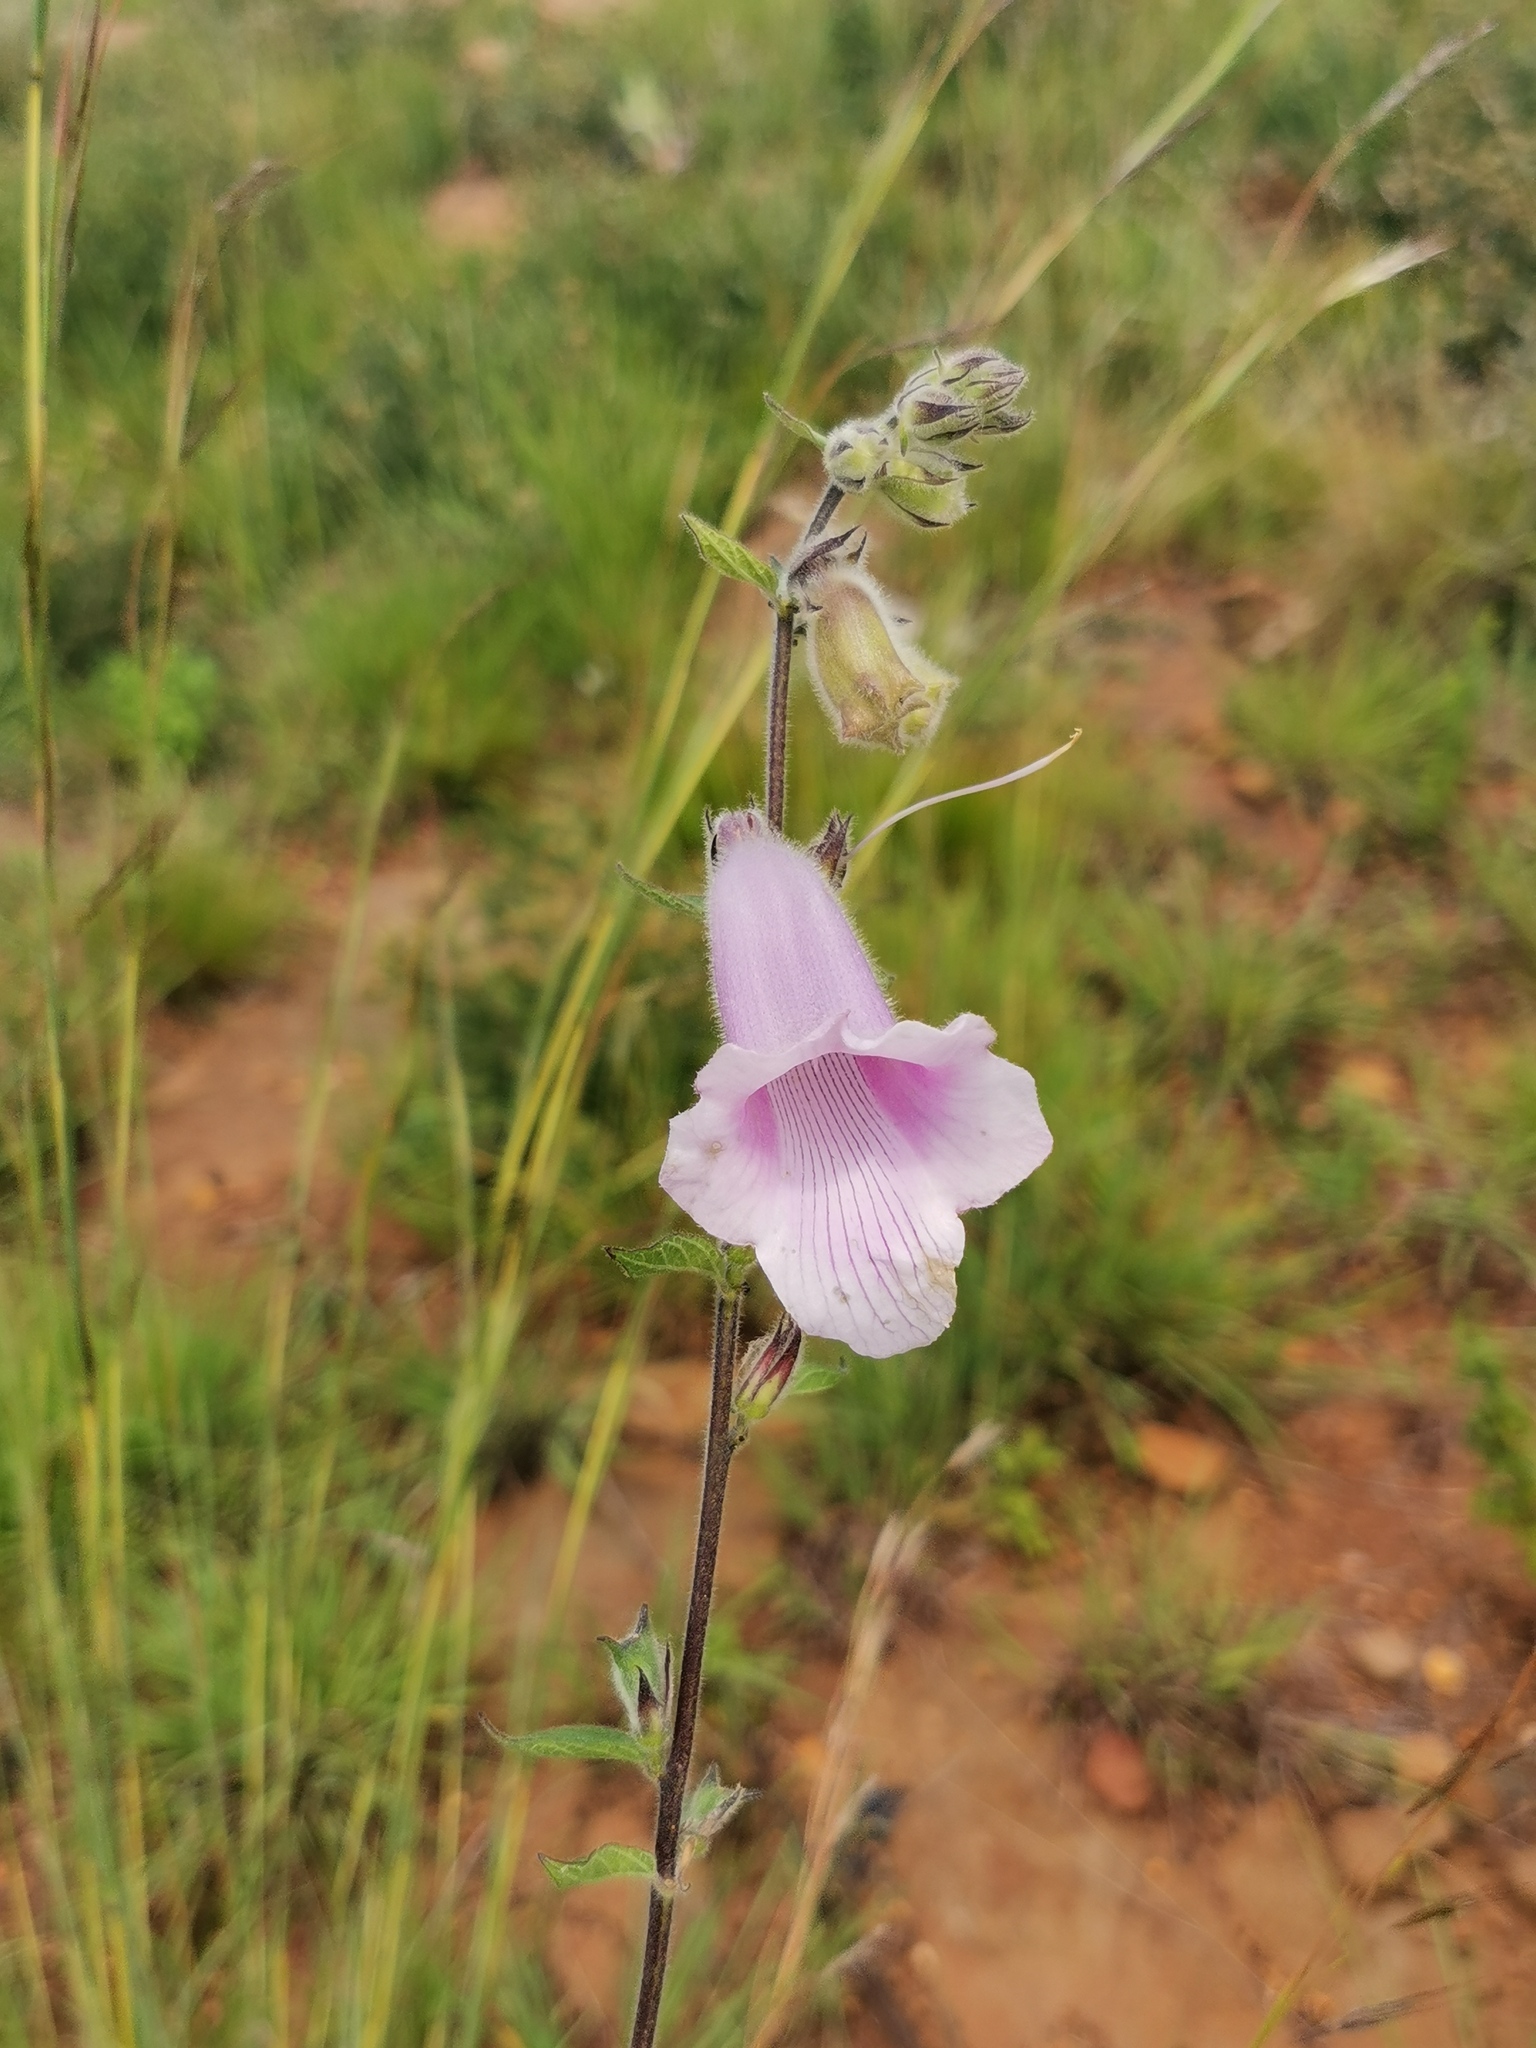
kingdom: Plantae
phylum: Tracheophyta
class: Magnoliopsida
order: Lamiales
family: Pedaliaceae
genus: Sesamum
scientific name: Sesamum trilobum
